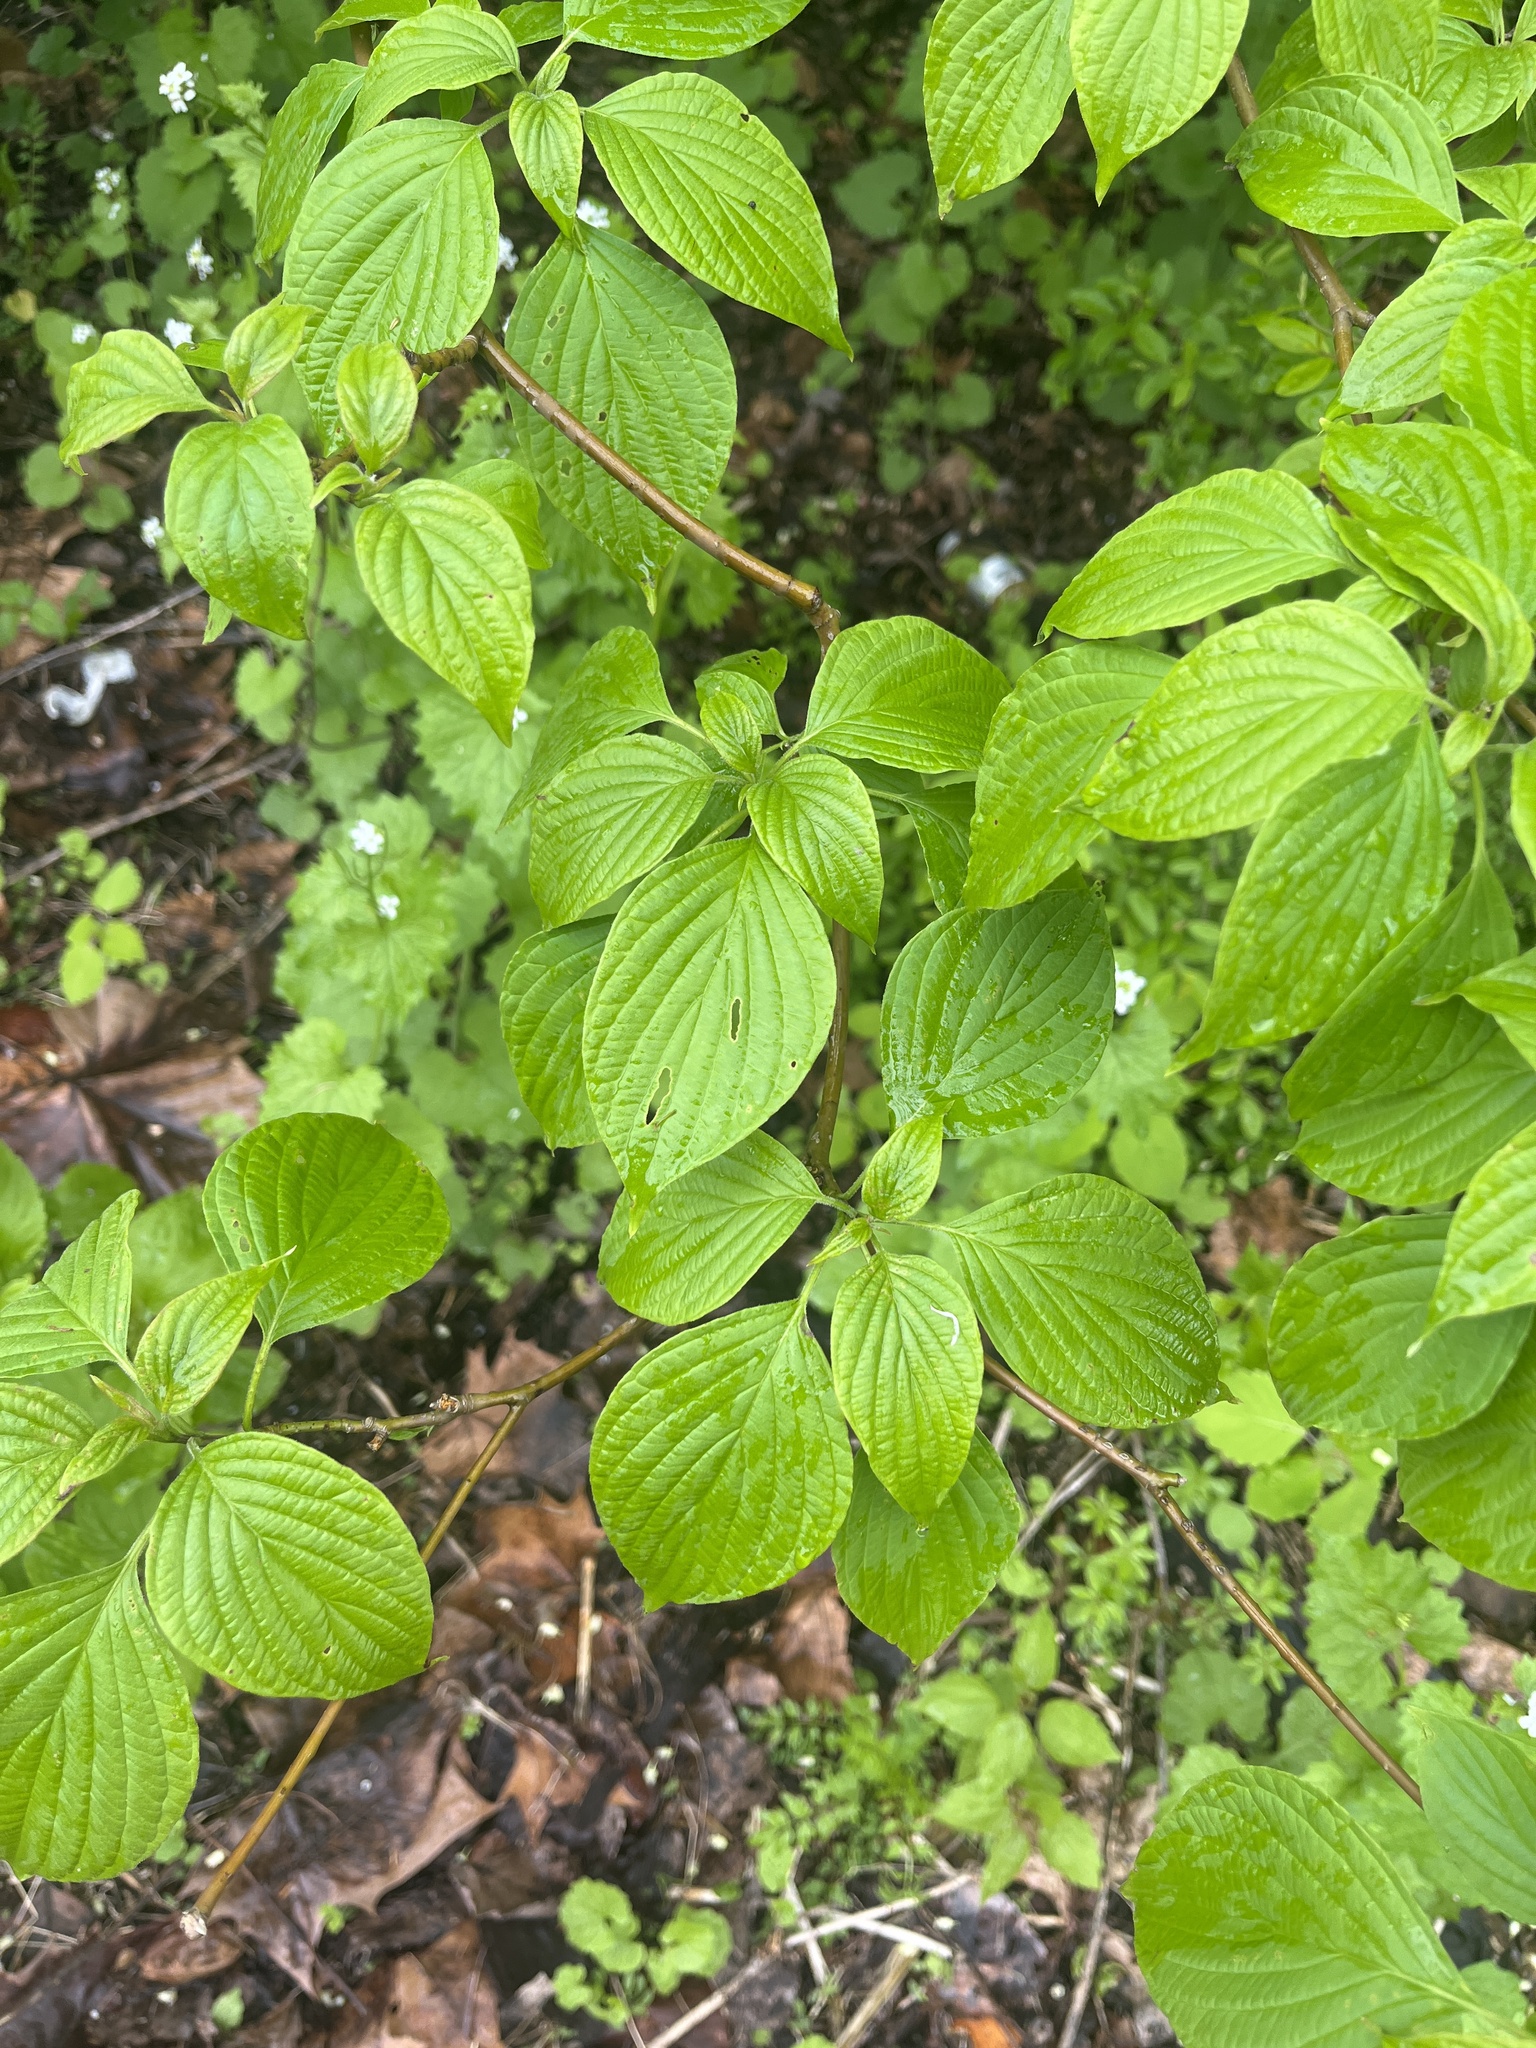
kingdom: Plantae
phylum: Tracheophyta
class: Magnoliopsida
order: Cornales
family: Cornaceae
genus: Cornus
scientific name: Cornus alternifolia
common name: Pagoda dogwood
